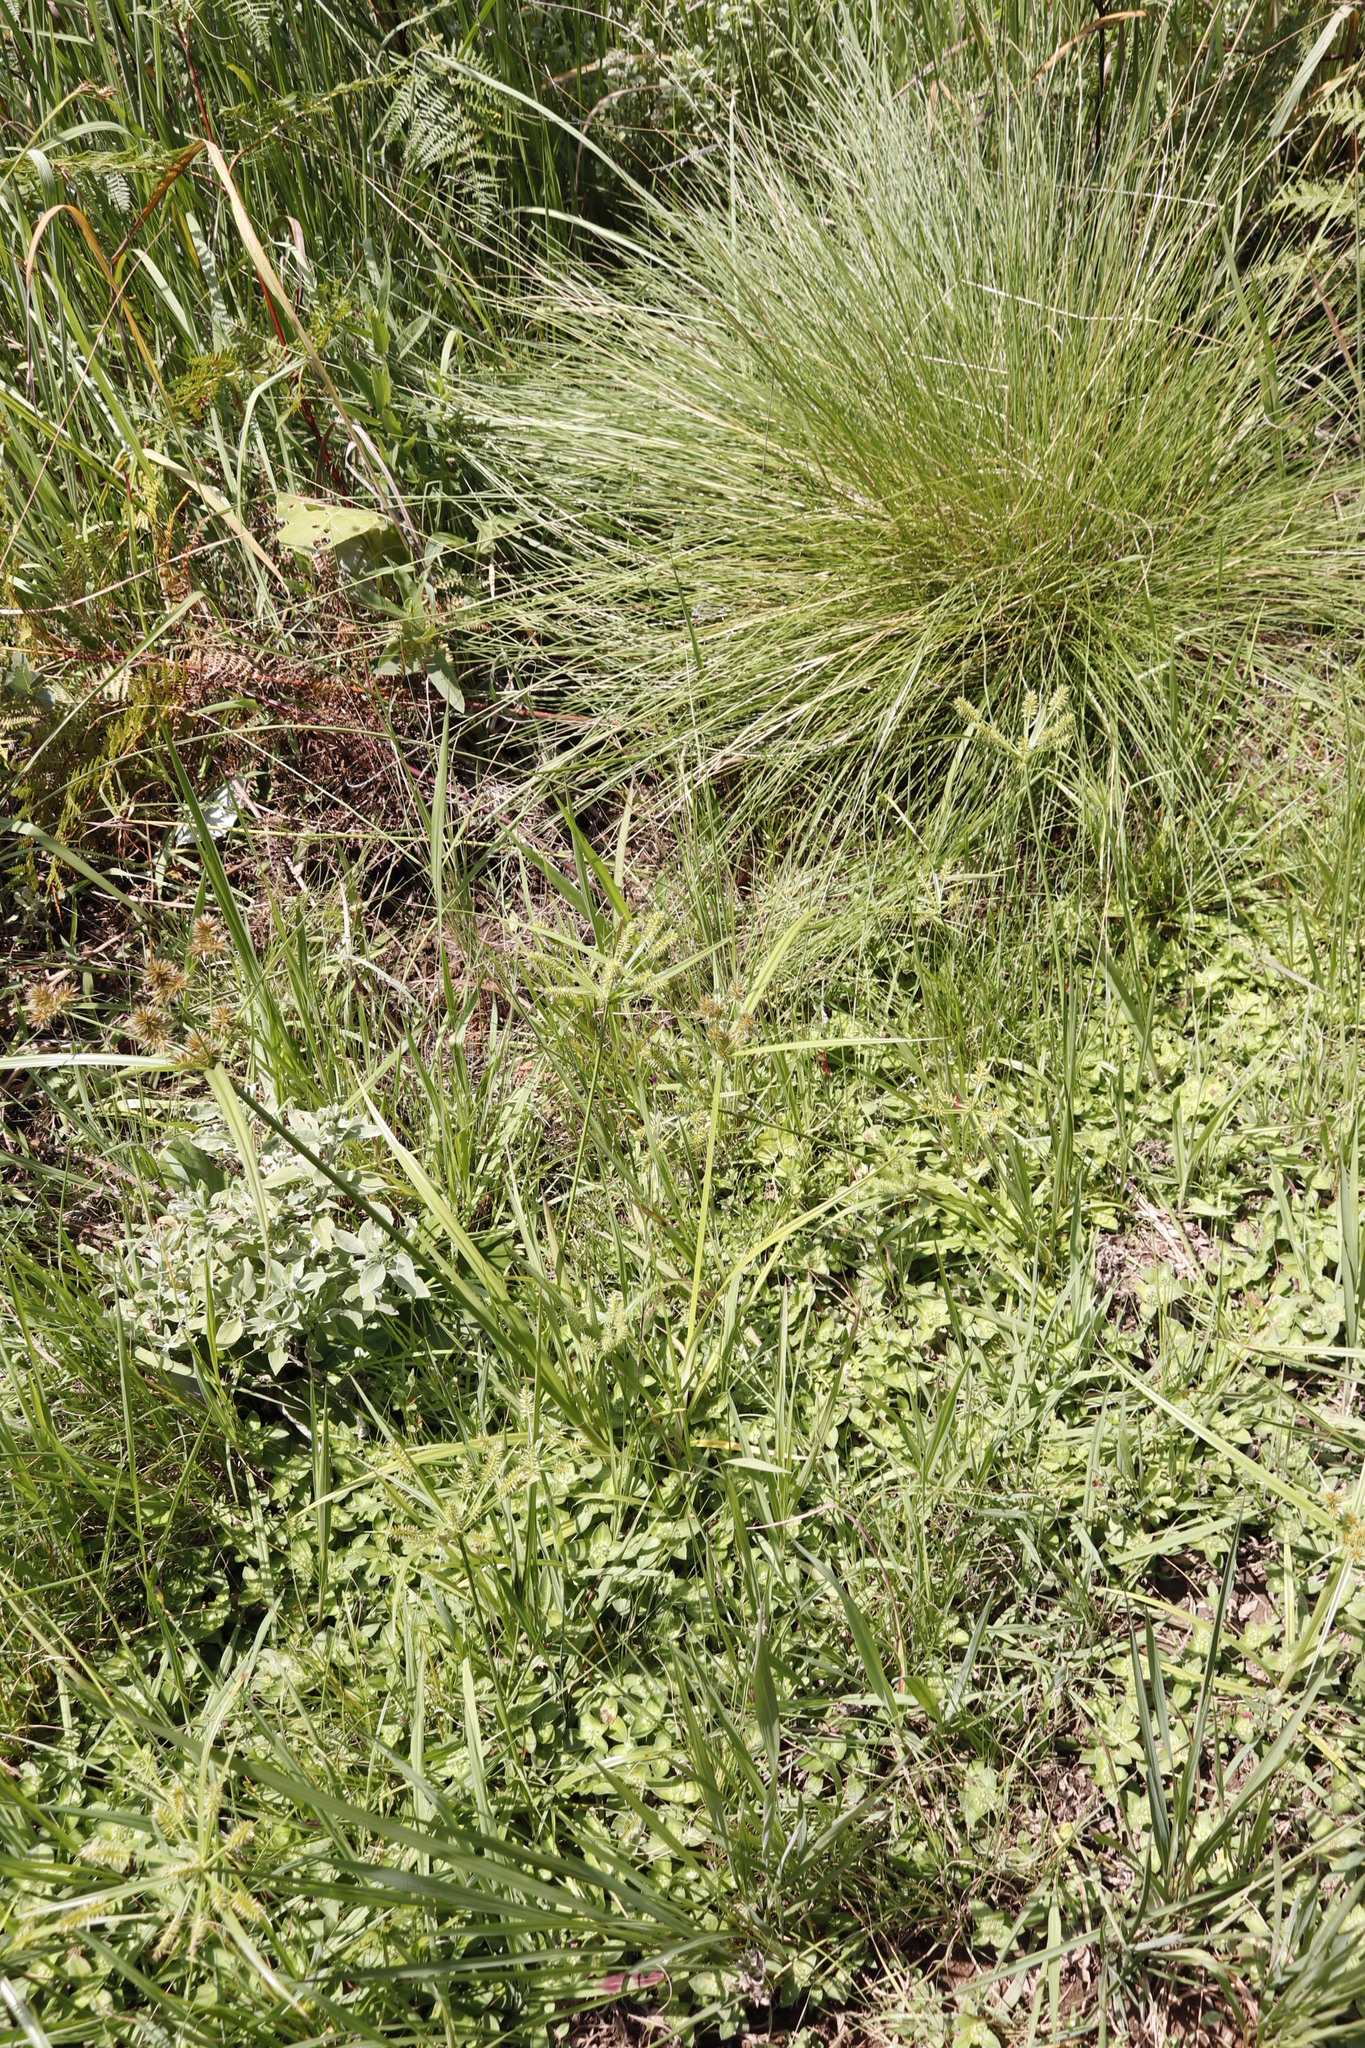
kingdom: Plantae
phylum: Tracheophyta
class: Liliopsida
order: Poales
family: Cyperaceae
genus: Cyperus
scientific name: Cyperus congestus
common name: Dense flat sedge
